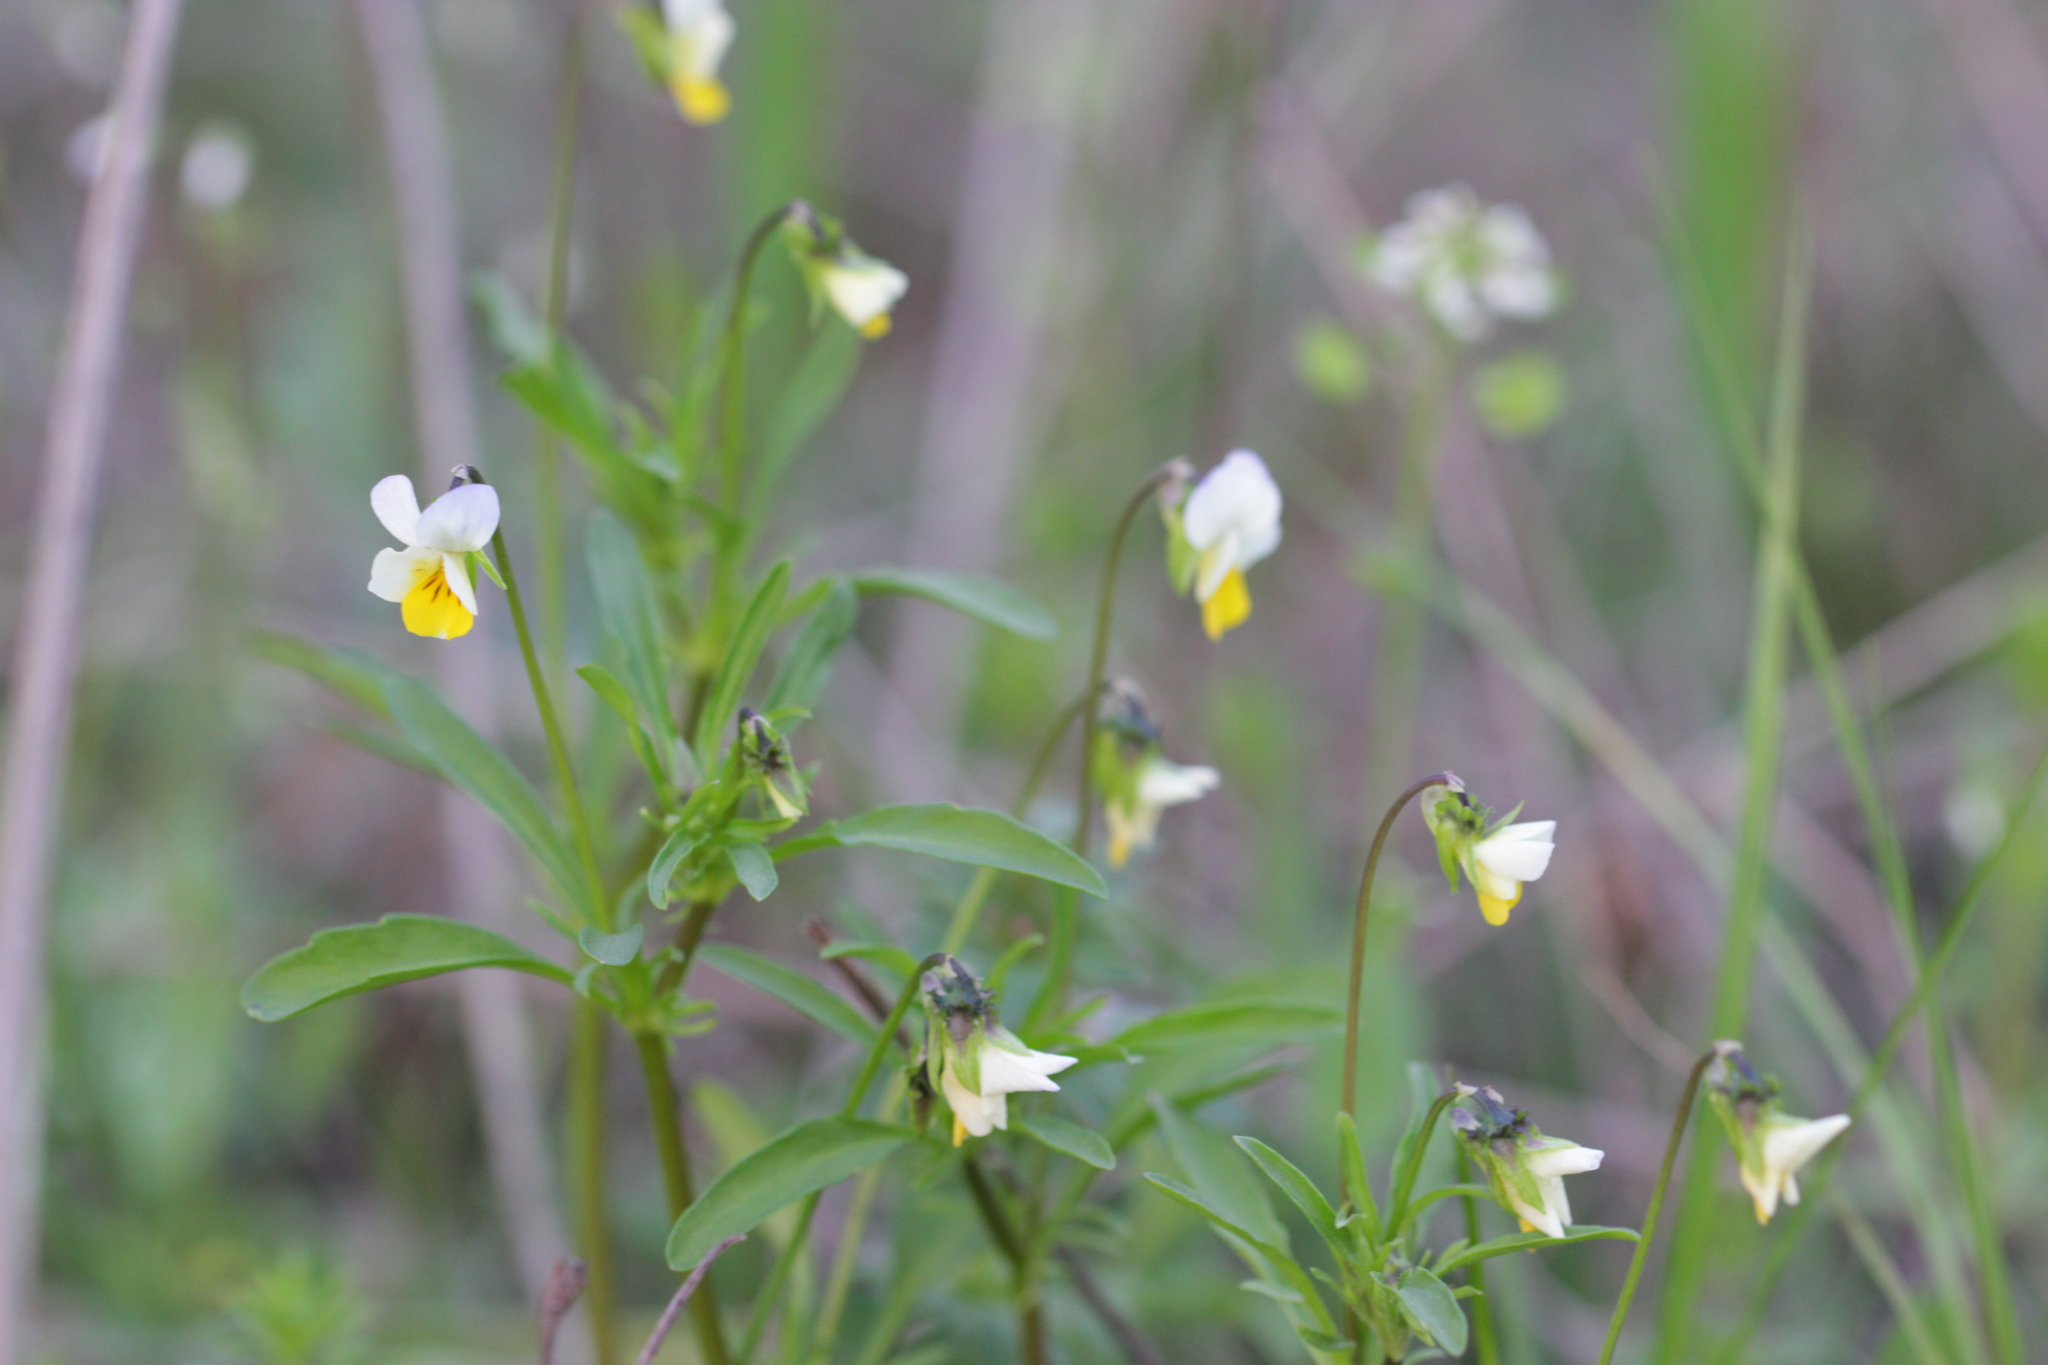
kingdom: Plantae
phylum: Tracheophyta
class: Magnoliopsida
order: Malpighiales
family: Violaceae
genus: Viola
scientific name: Viola arvensis
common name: Field pansy
